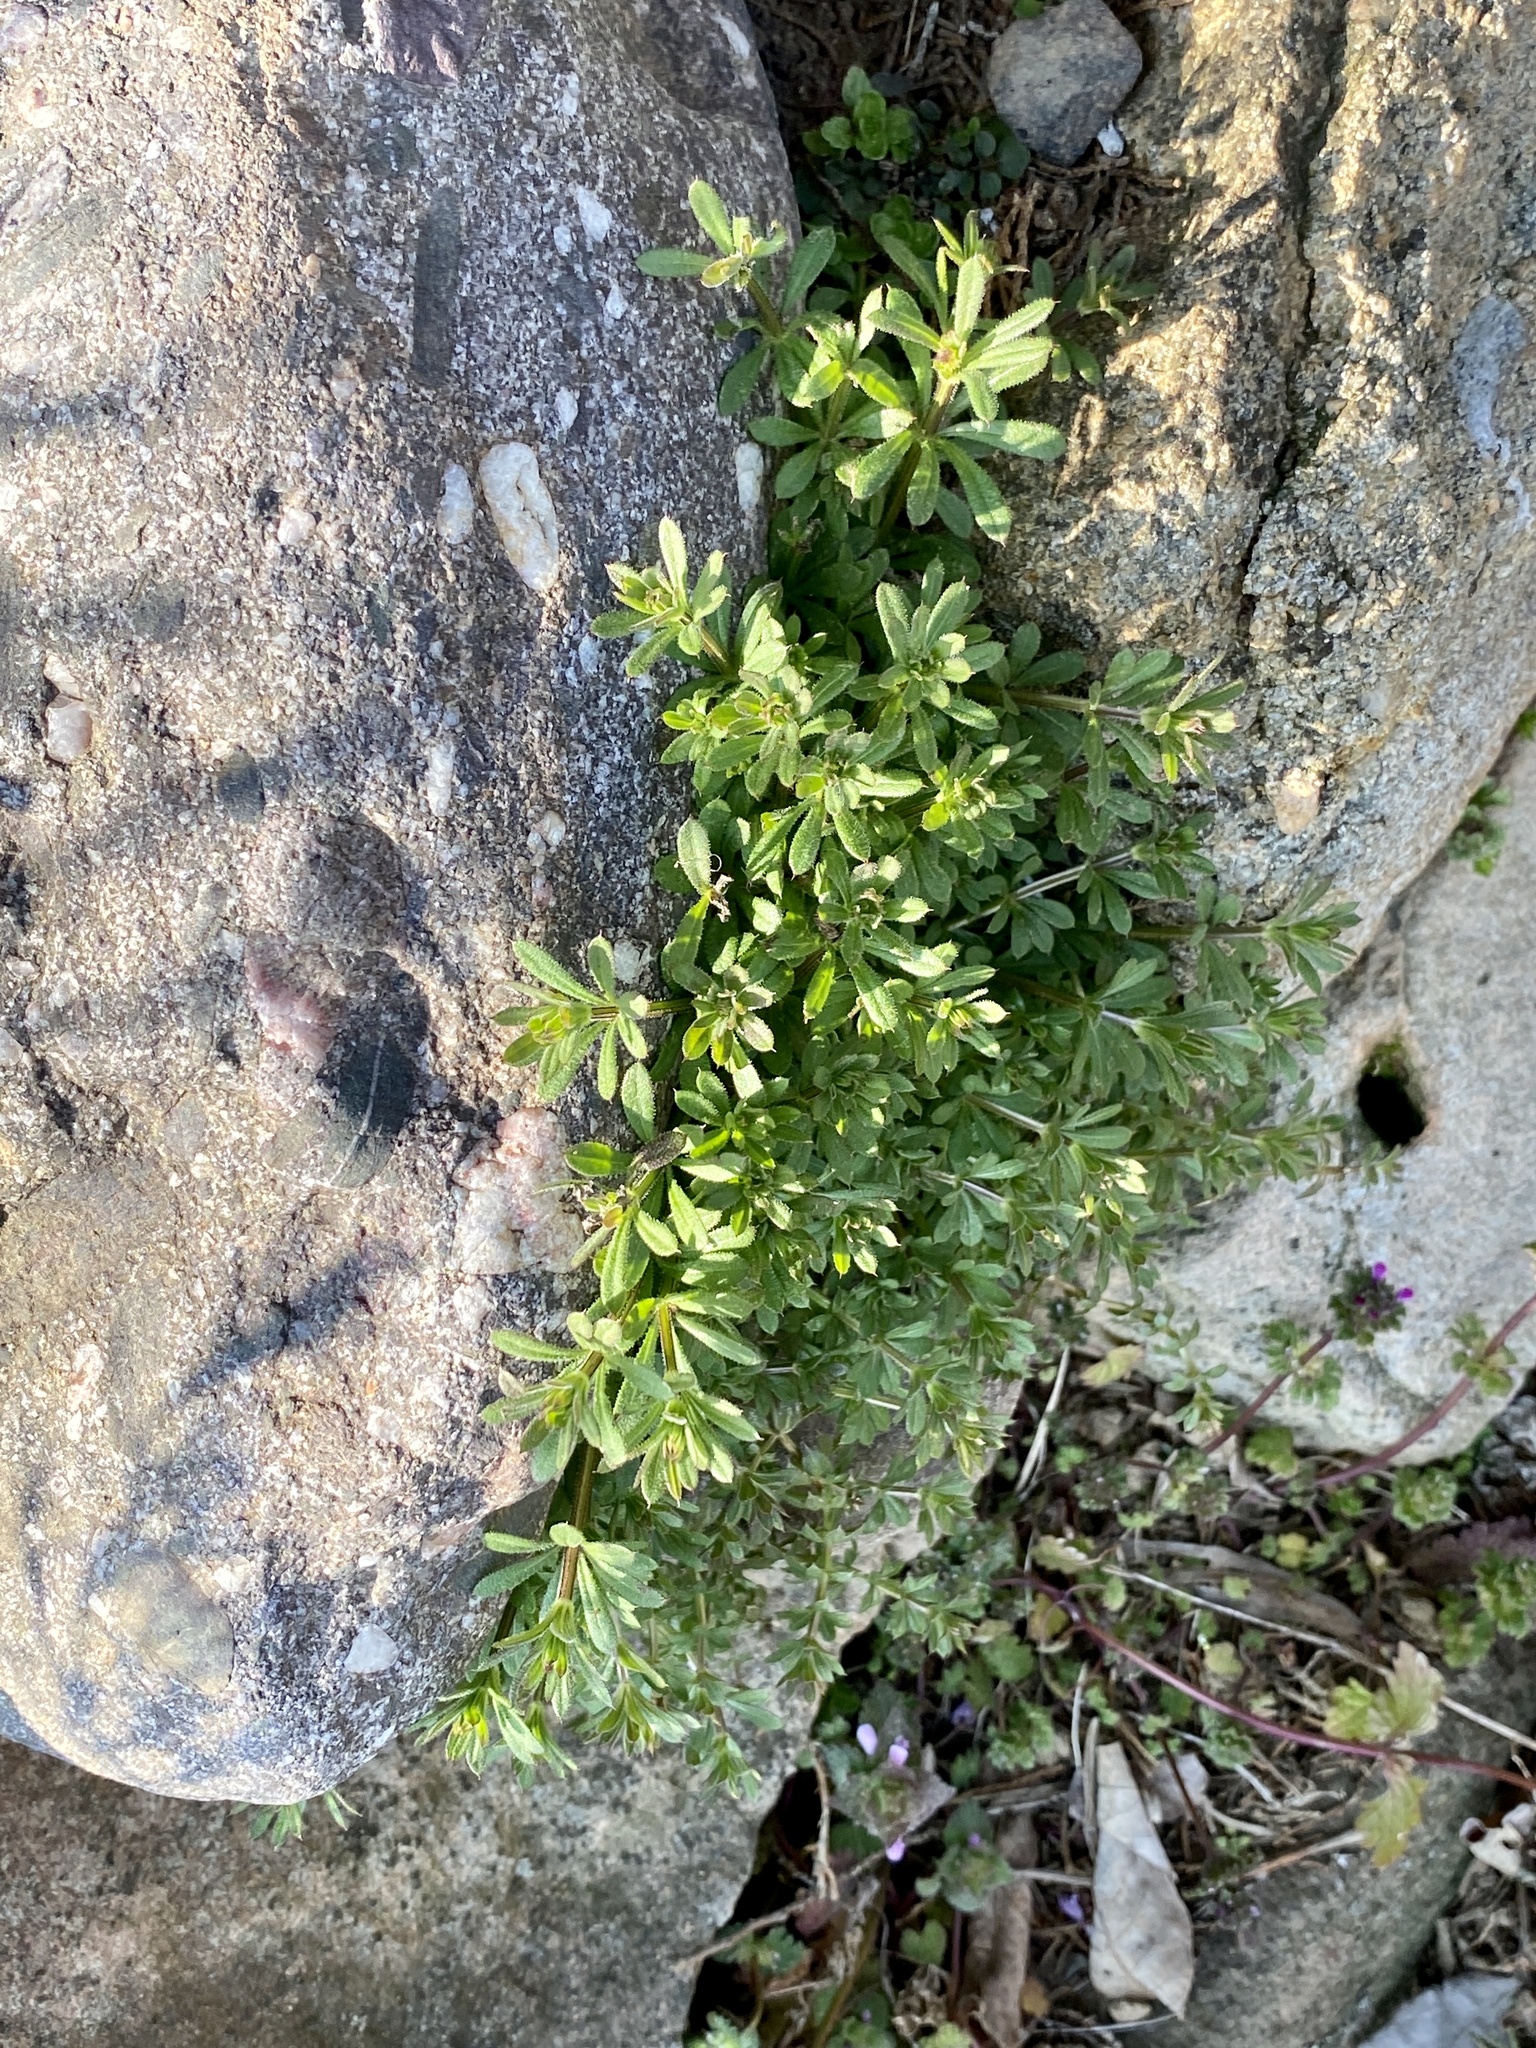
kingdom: Plantae
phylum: Tracheophyta
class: Magnoliopsida
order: Gentianales
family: Rubiaceae
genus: Galium
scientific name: Galium aparine
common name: Cleavers
